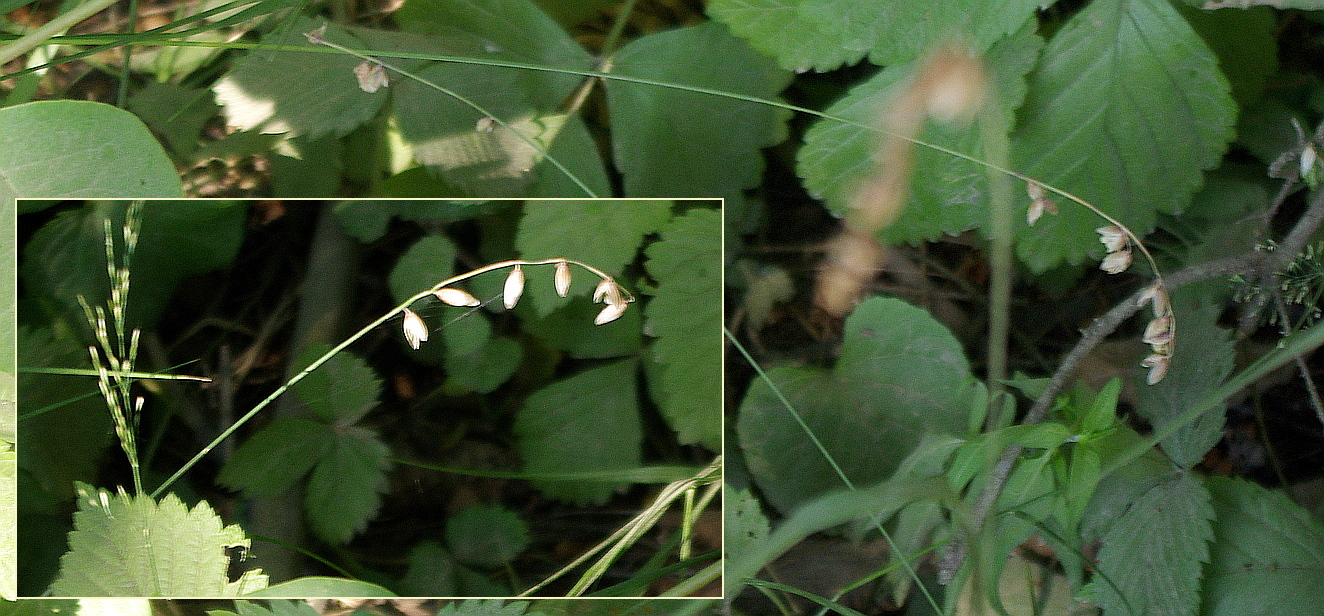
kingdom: Plantae
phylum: Tracheophyta
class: Liliopsida
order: Poales
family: Poaceae
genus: Melica
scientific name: Melica nutans
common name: Mountain melick
